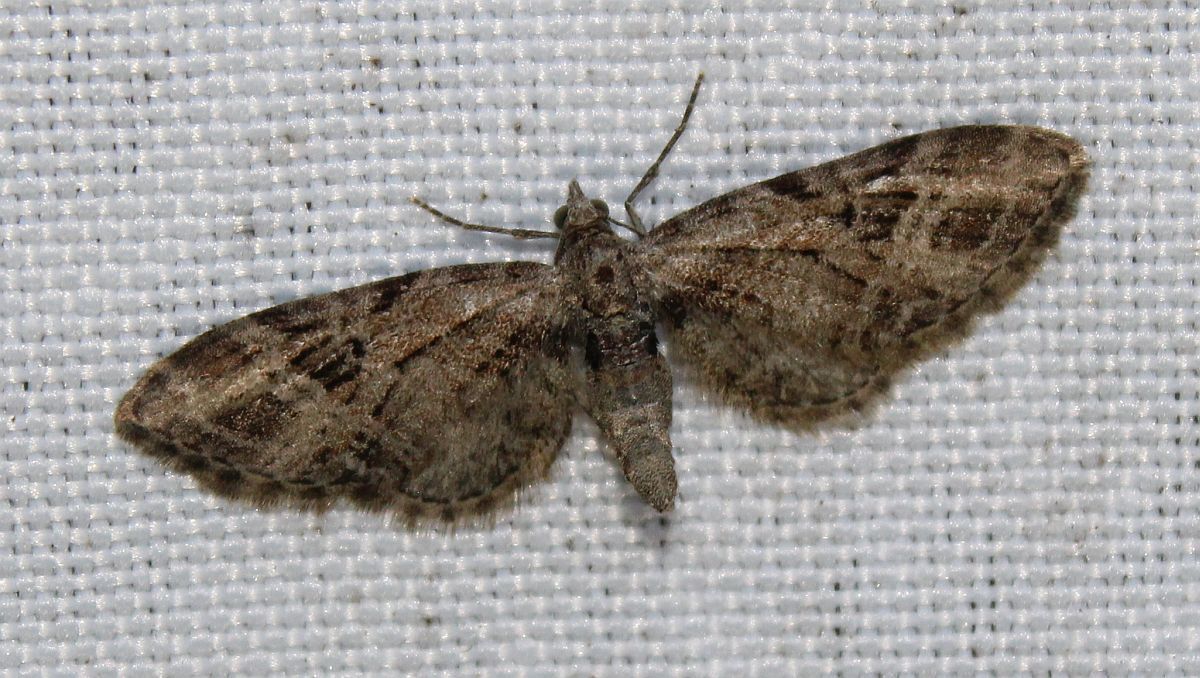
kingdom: Animalia
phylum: Arthropoda
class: Insecta
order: Lepidoptera
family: Geometridae
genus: Eupithecia
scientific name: Eupithecia exiguata
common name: Mottled pug
